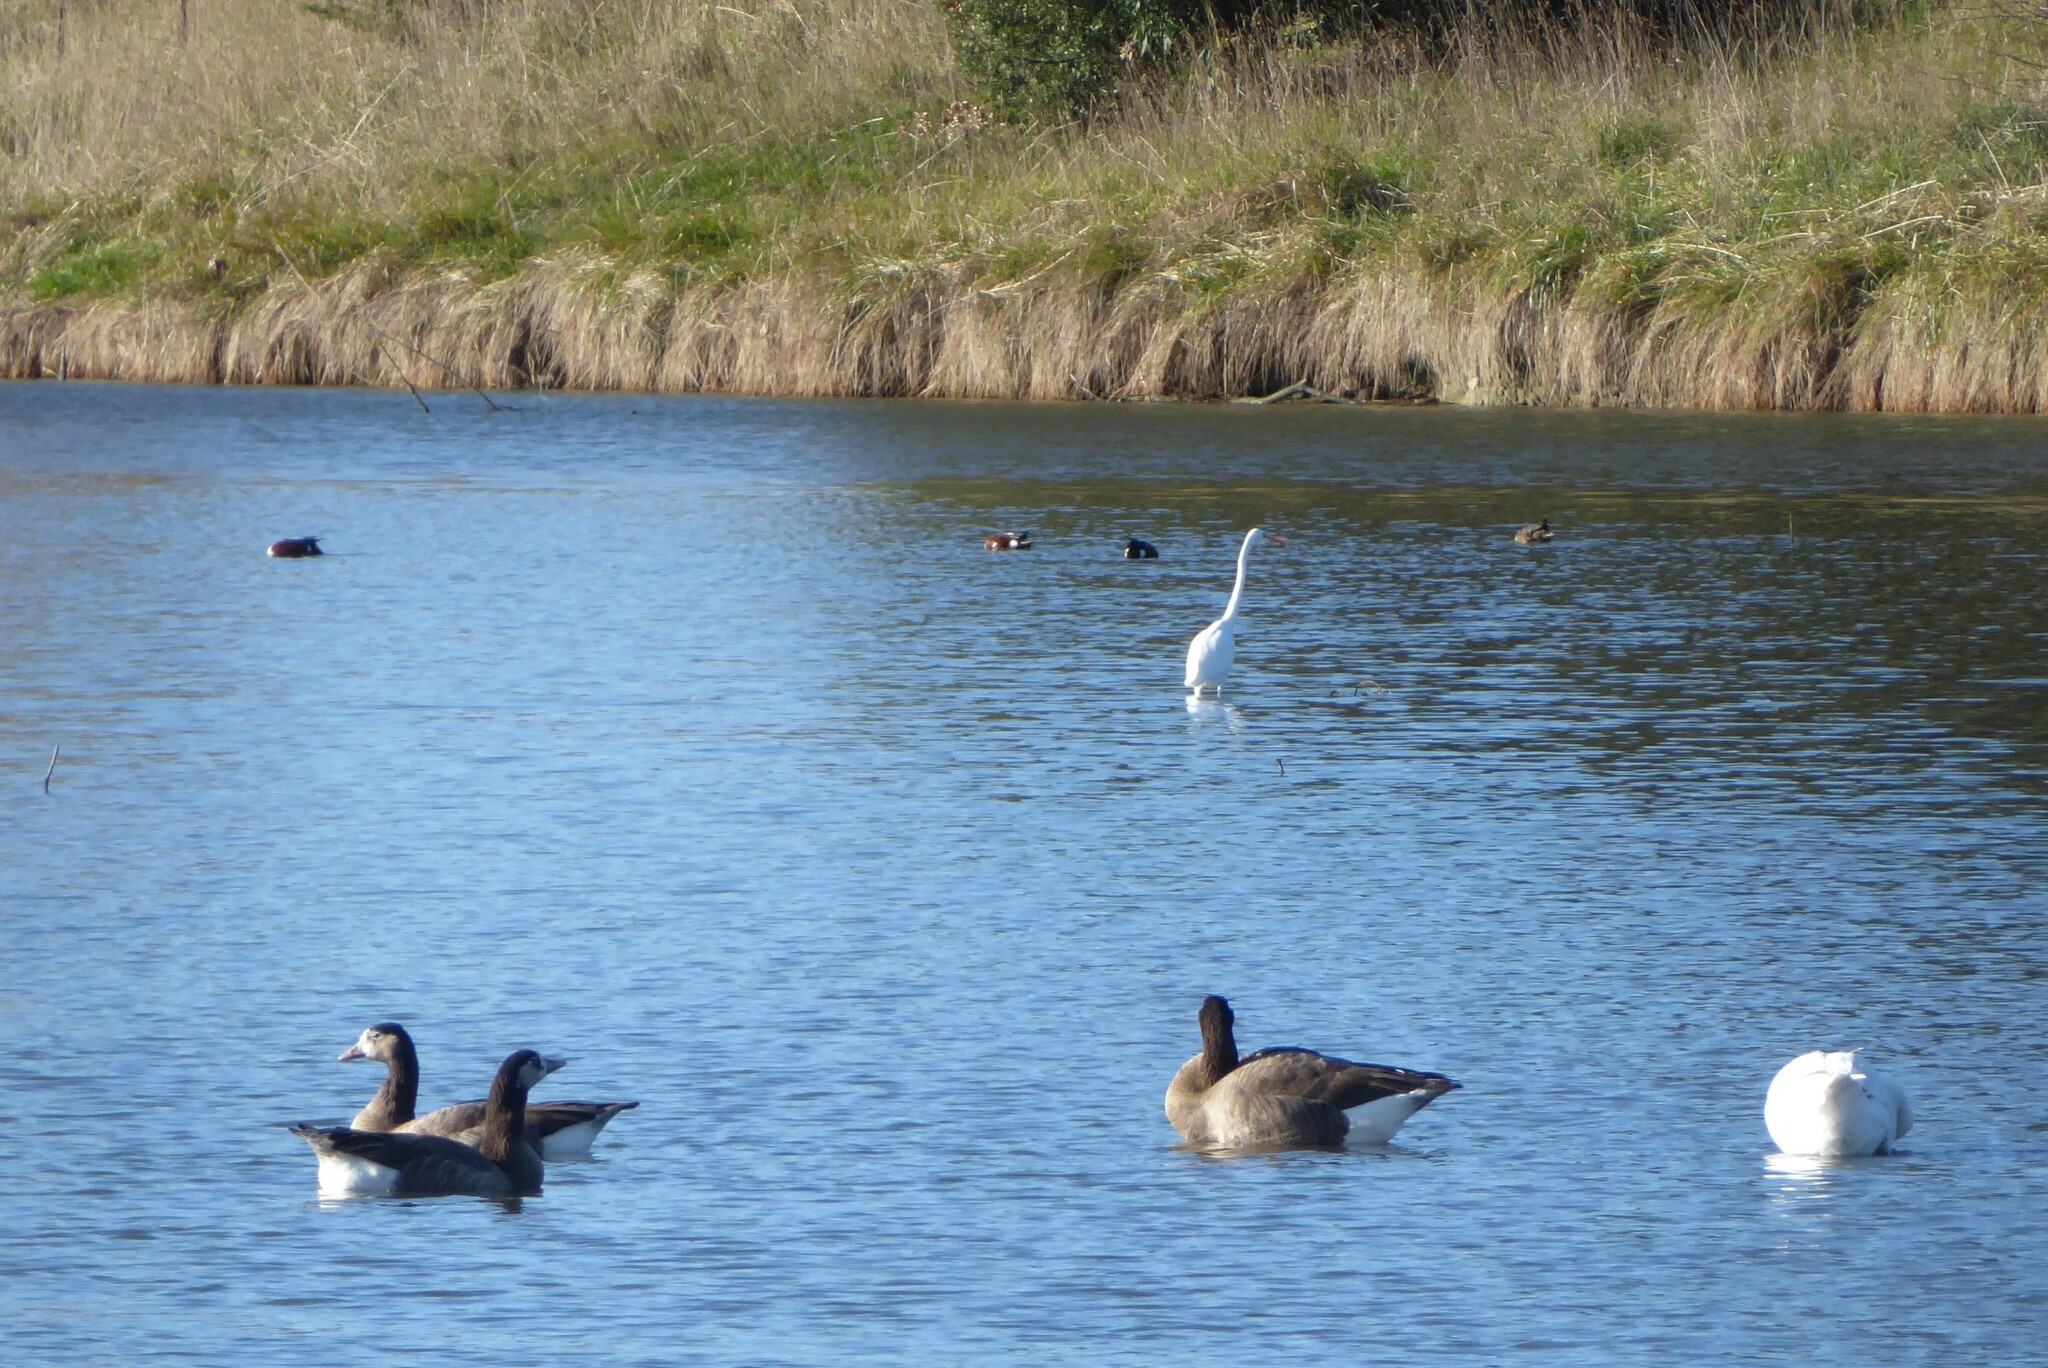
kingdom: Animalia
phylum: Chordata
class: Aves
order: Pelecaniformes
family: Ardeidae
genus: Ardea
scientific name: Ardea modesta
